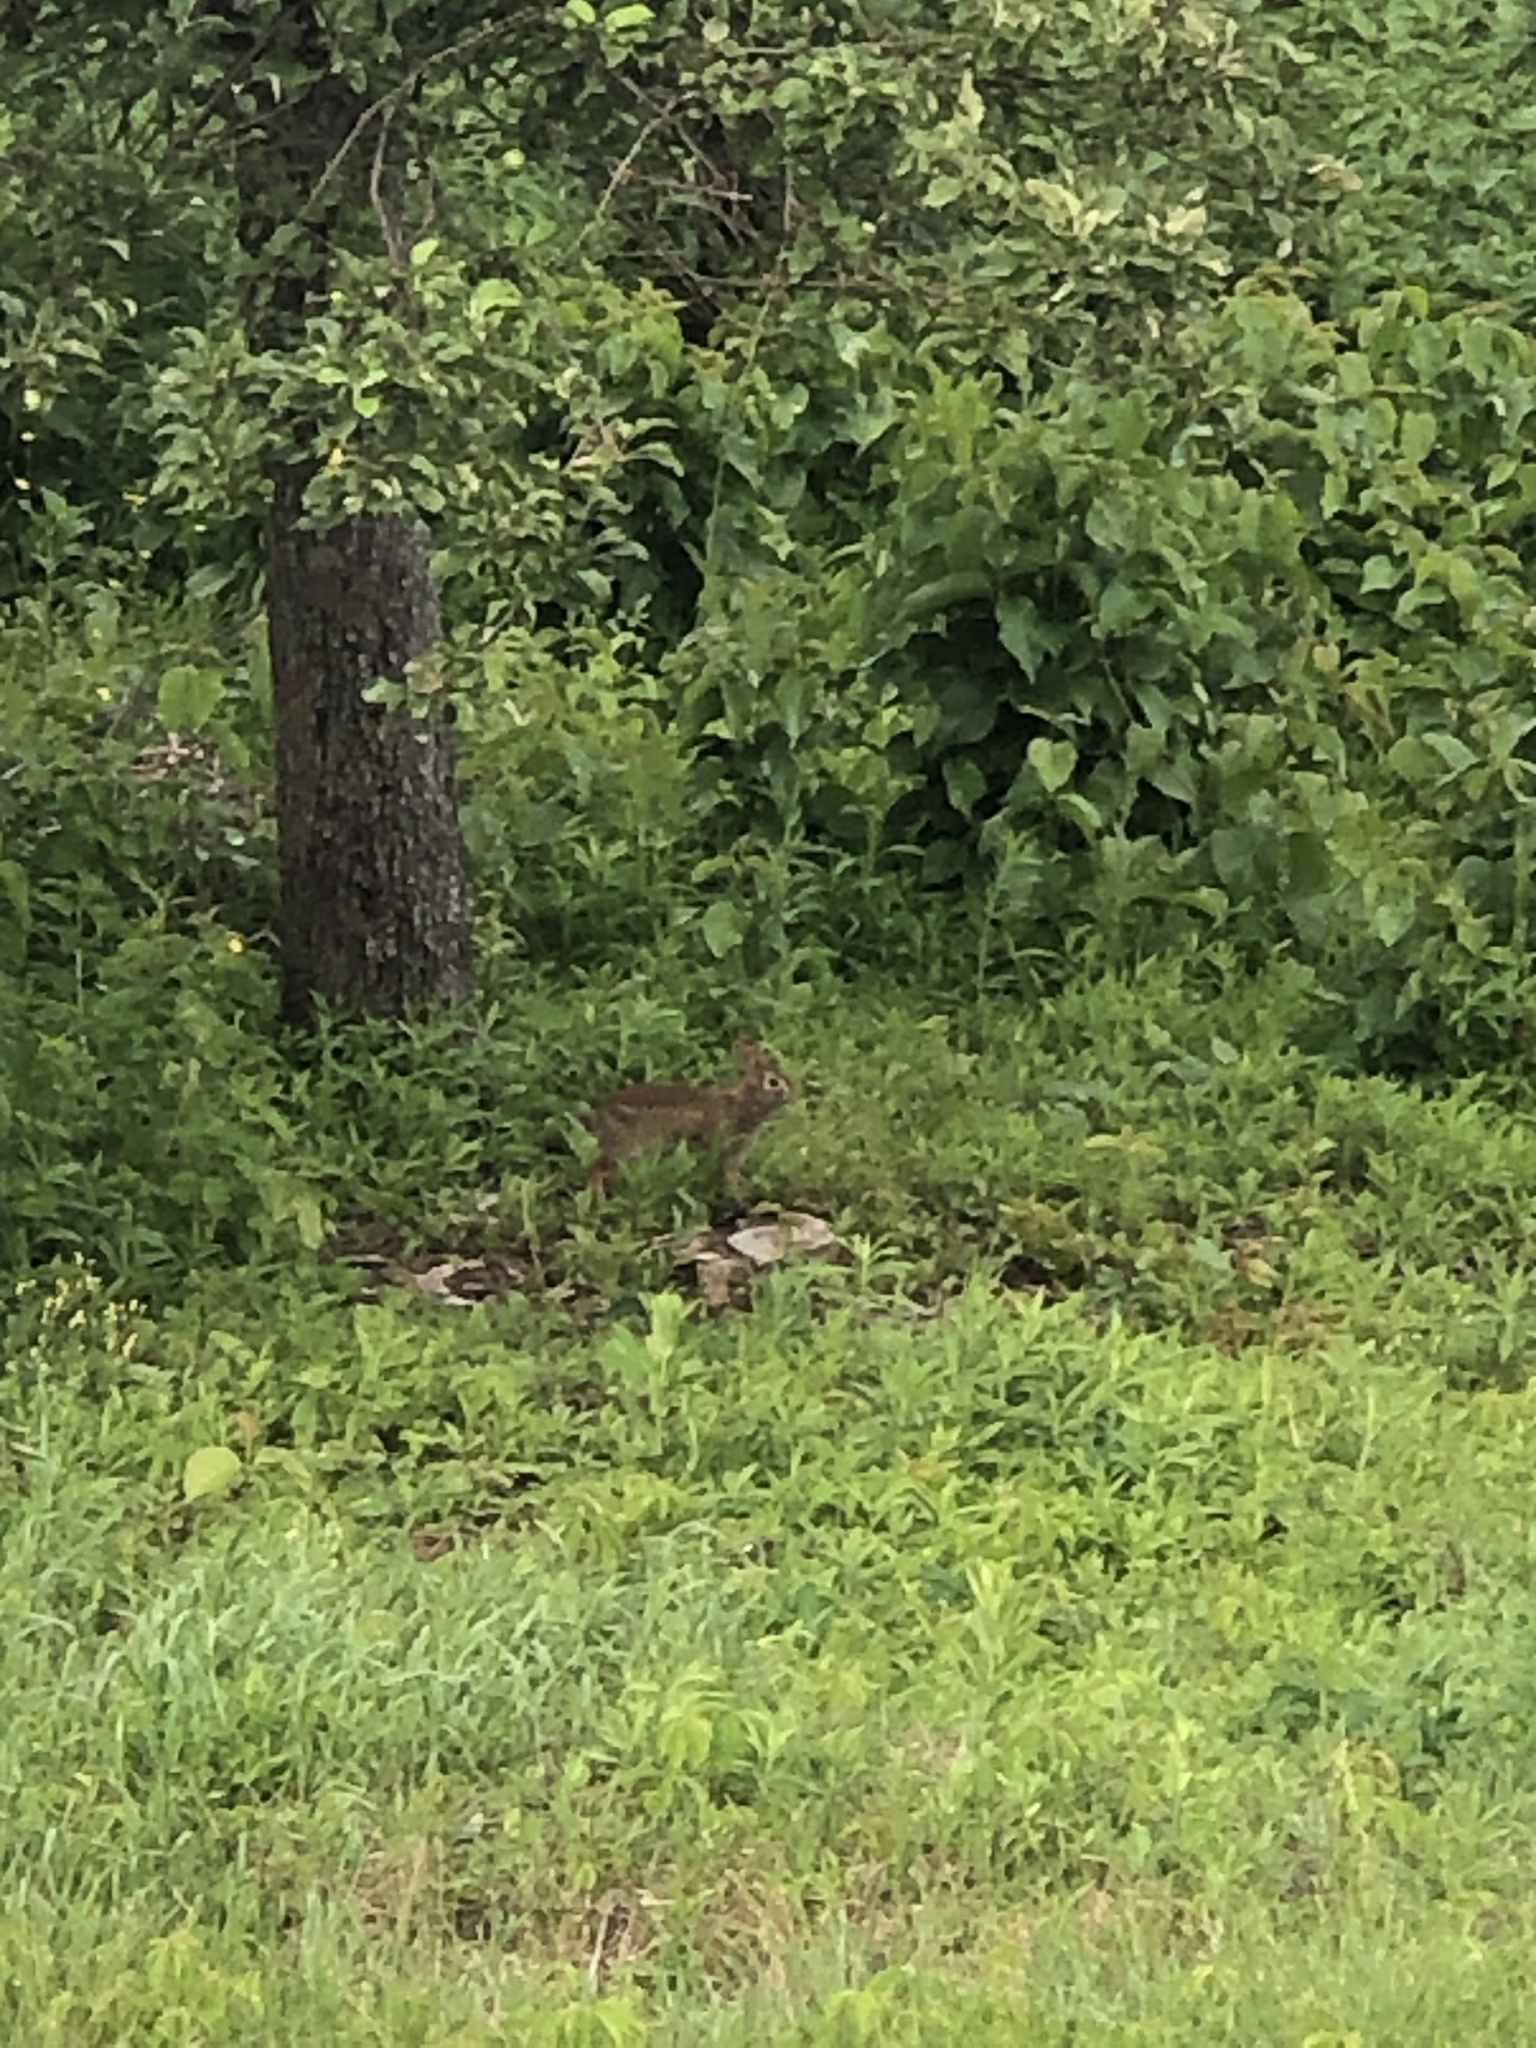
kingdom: Animalia
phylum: Chordata
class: Mammalia
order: Lagomorpha
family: Leporidae
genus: Sylvilagus
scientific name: Sylvilagus floridanus
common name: Eastern cottontail
